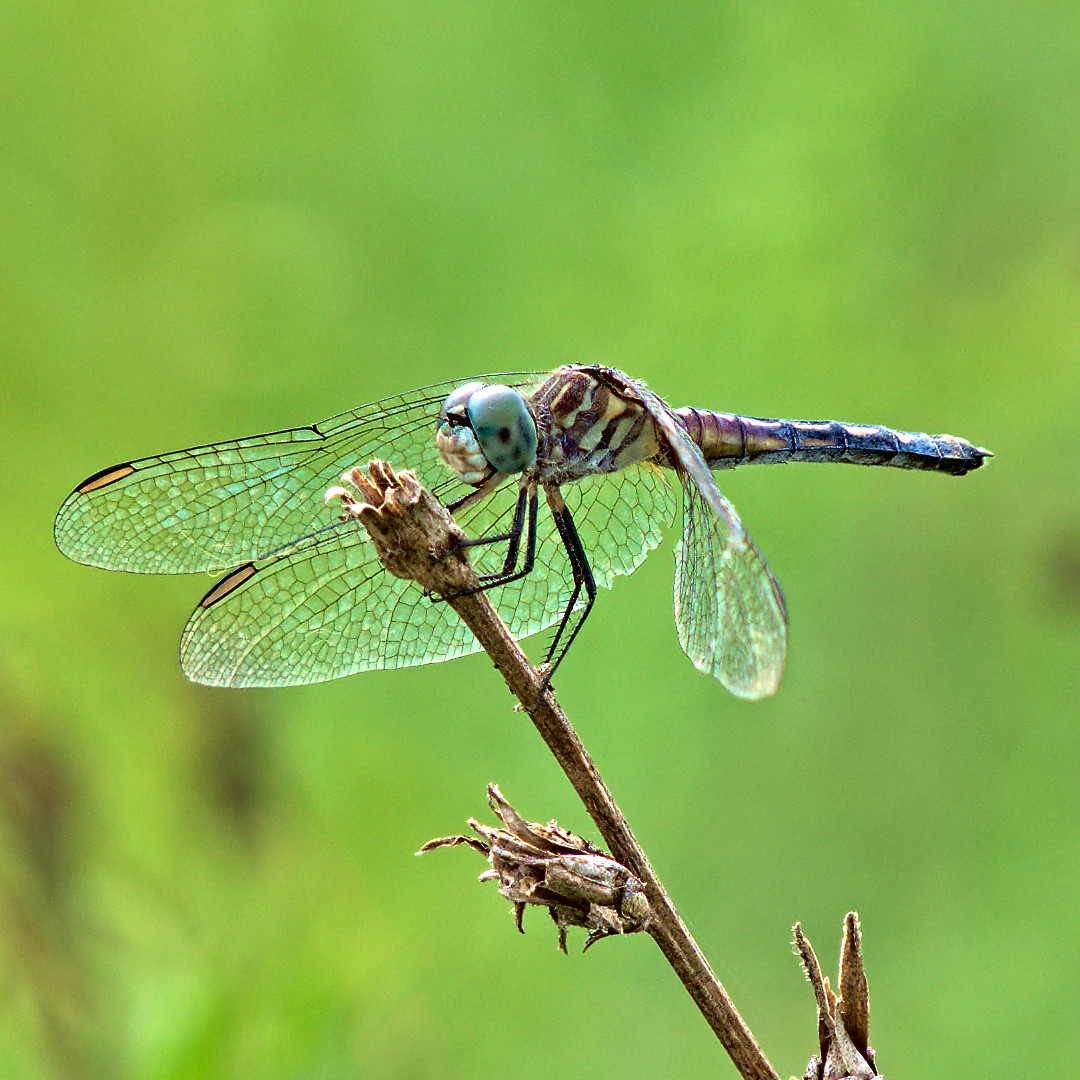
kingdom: Animalia
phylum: Arthropoda
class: Insecta
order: Odonata
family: Libellulidae
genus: Pachydiplax
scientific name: Pachydiplax longipennis
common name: Blue dasher
